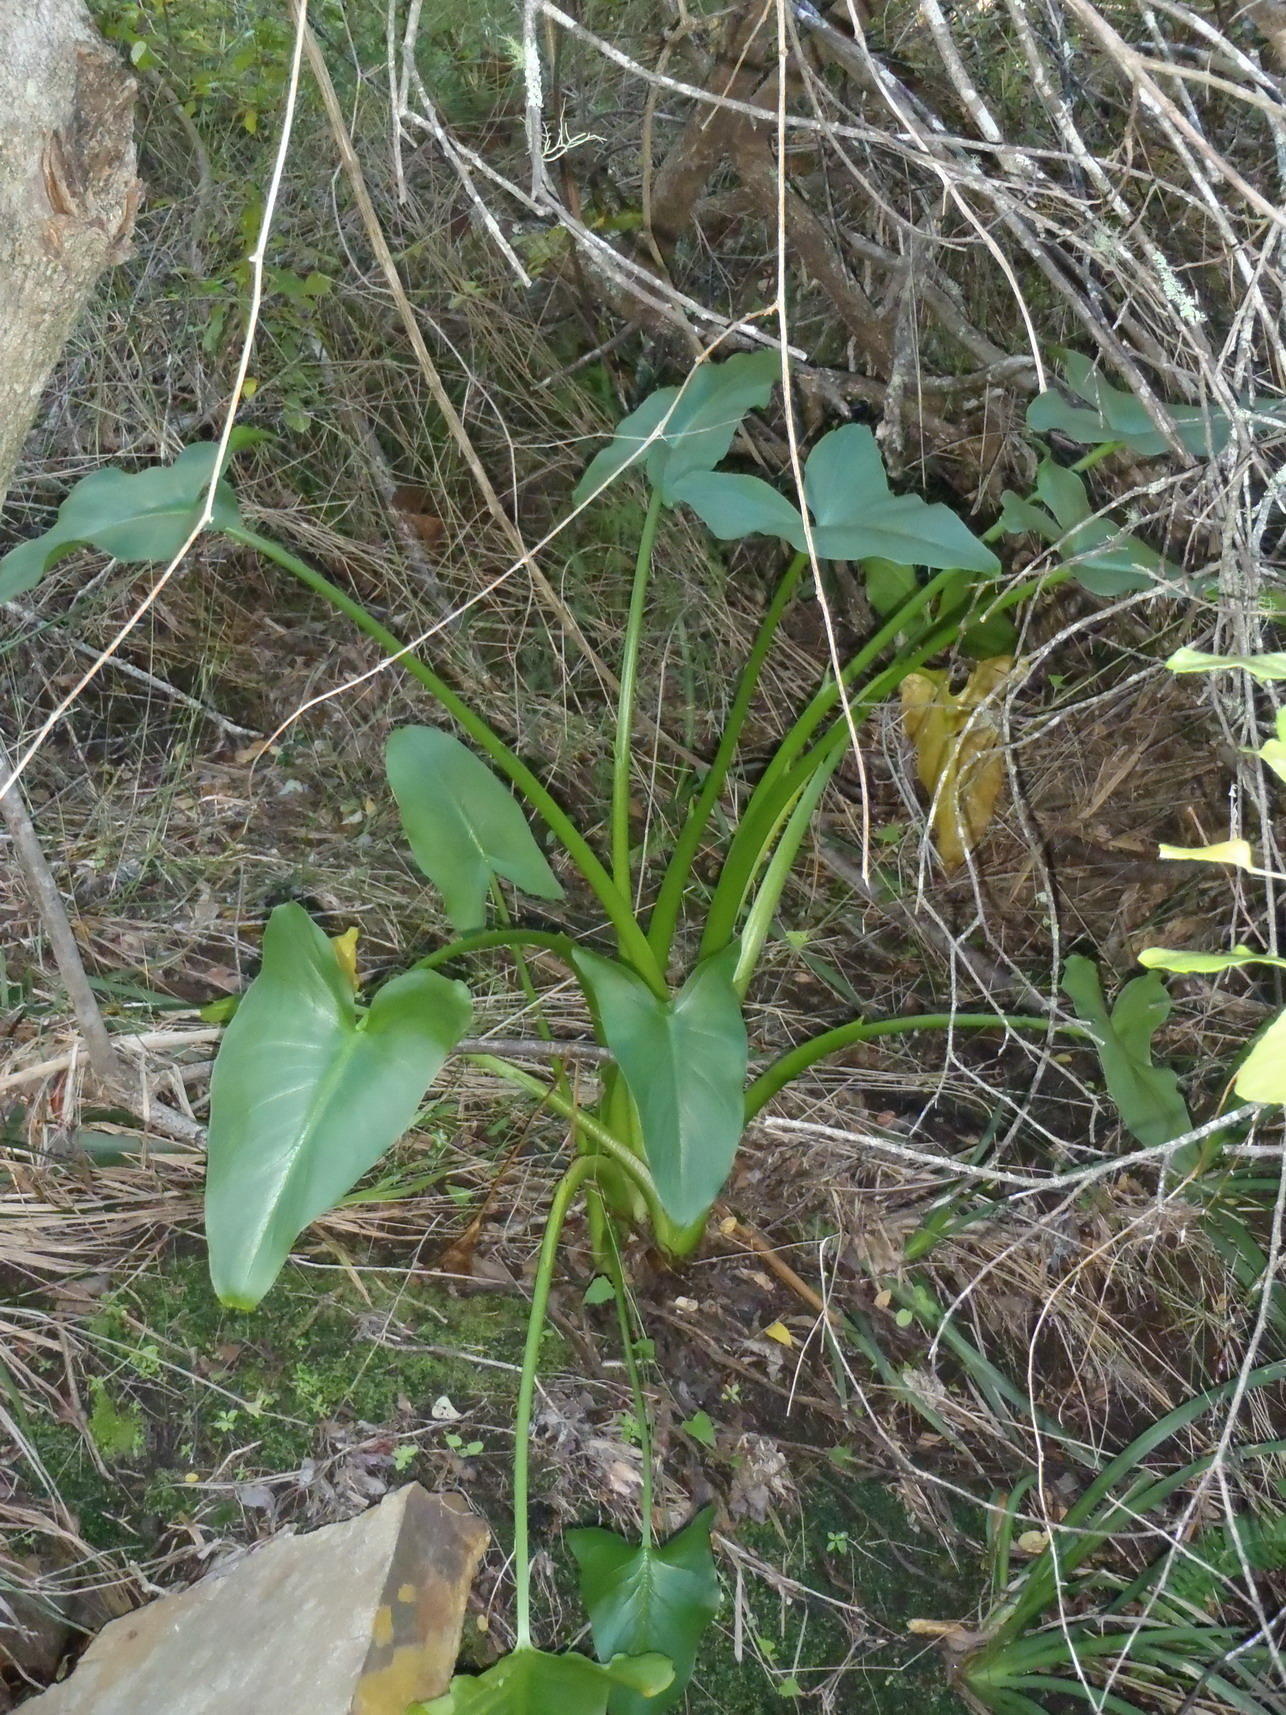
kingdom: Plantae
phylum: Tracheophyta
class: Liliopsida
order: Alismatales
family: Araceae
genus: Zantedeschia
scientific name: Zantedeschia aethiopica
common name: Altar-lily
